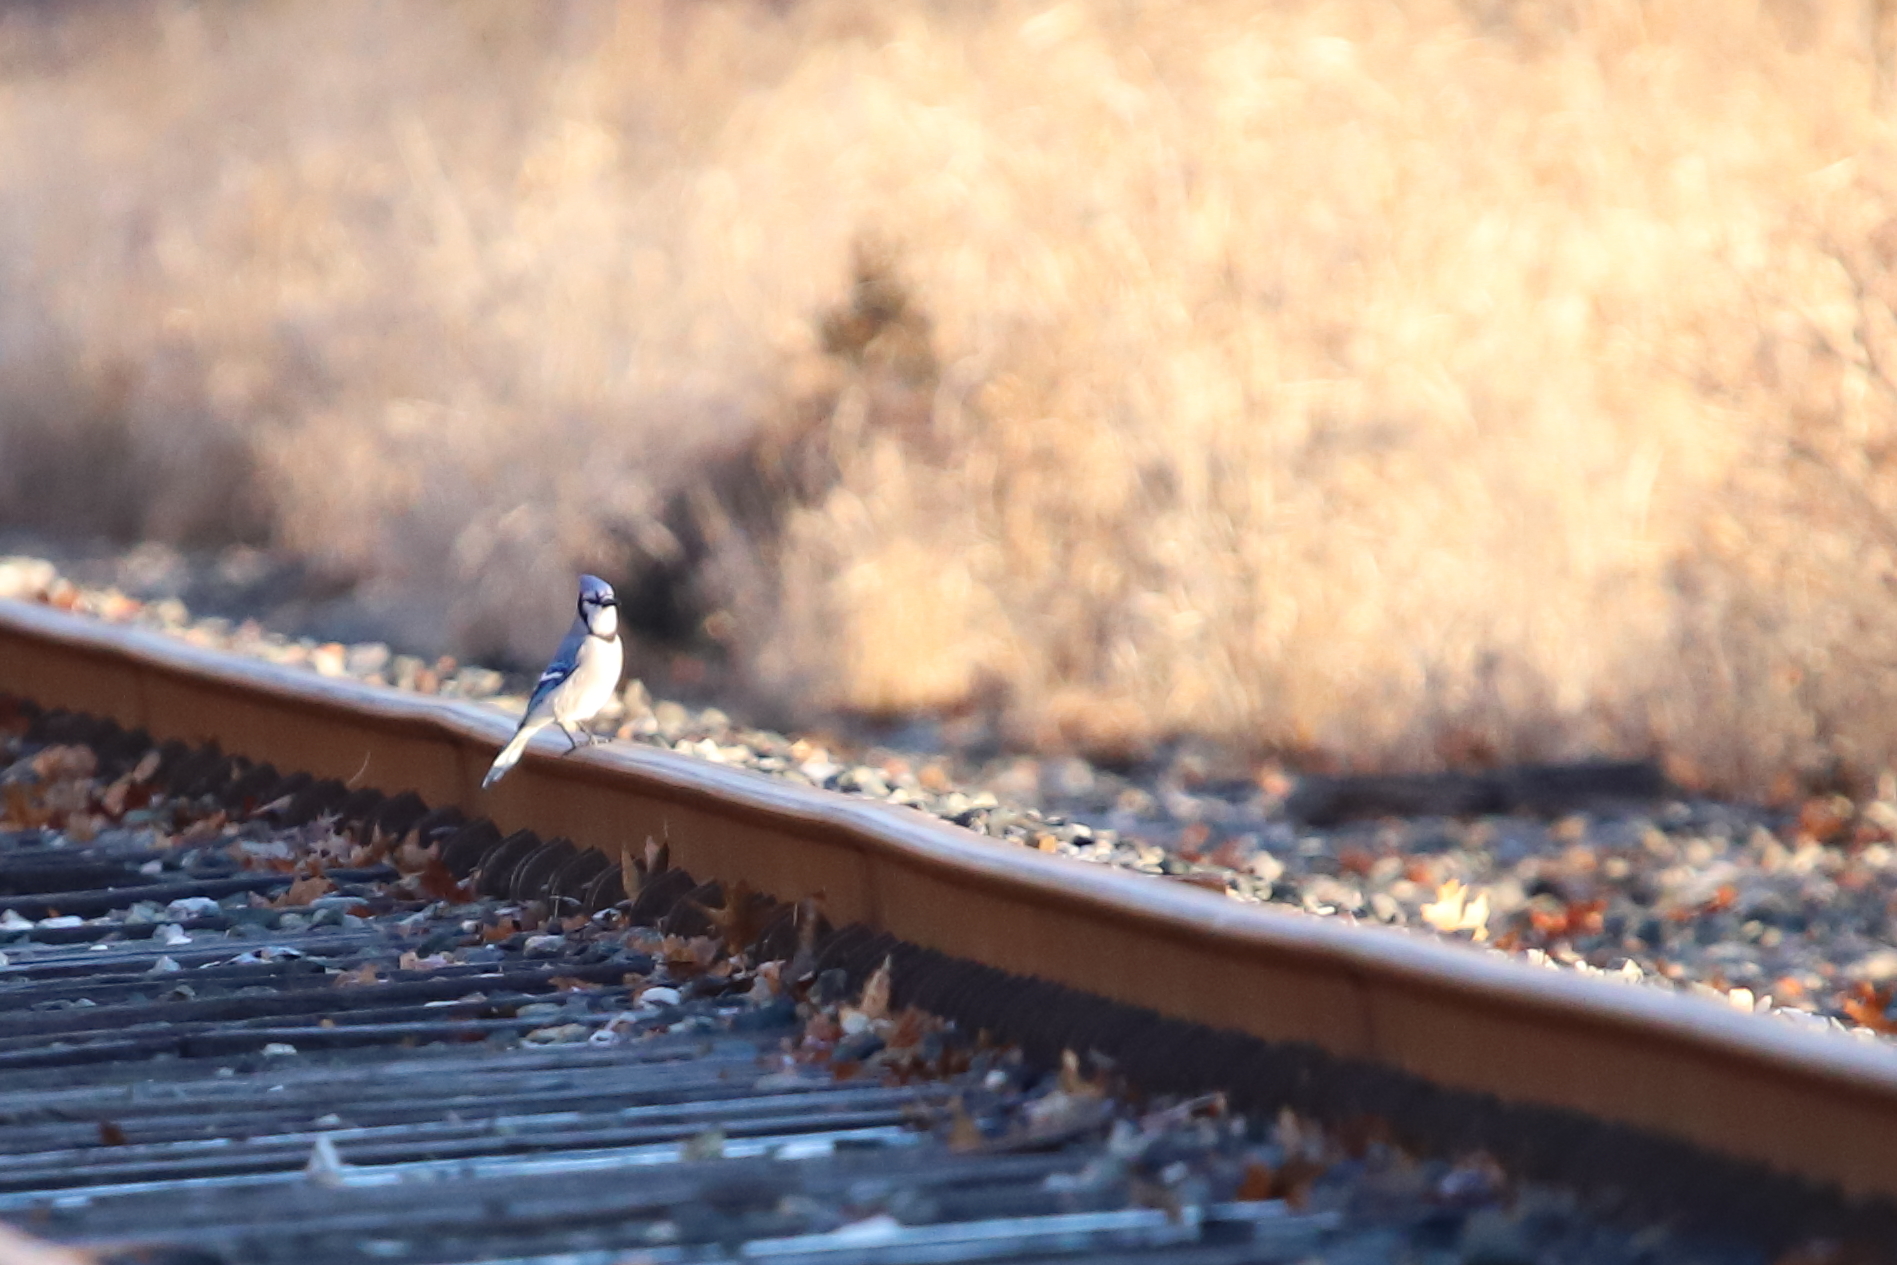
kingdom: Animalia
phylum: Chordata
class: Aves
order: Passeriformes
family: Corvidae
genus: Cyanocitta
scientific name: Cyanocitta cristata
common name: Blue jay
